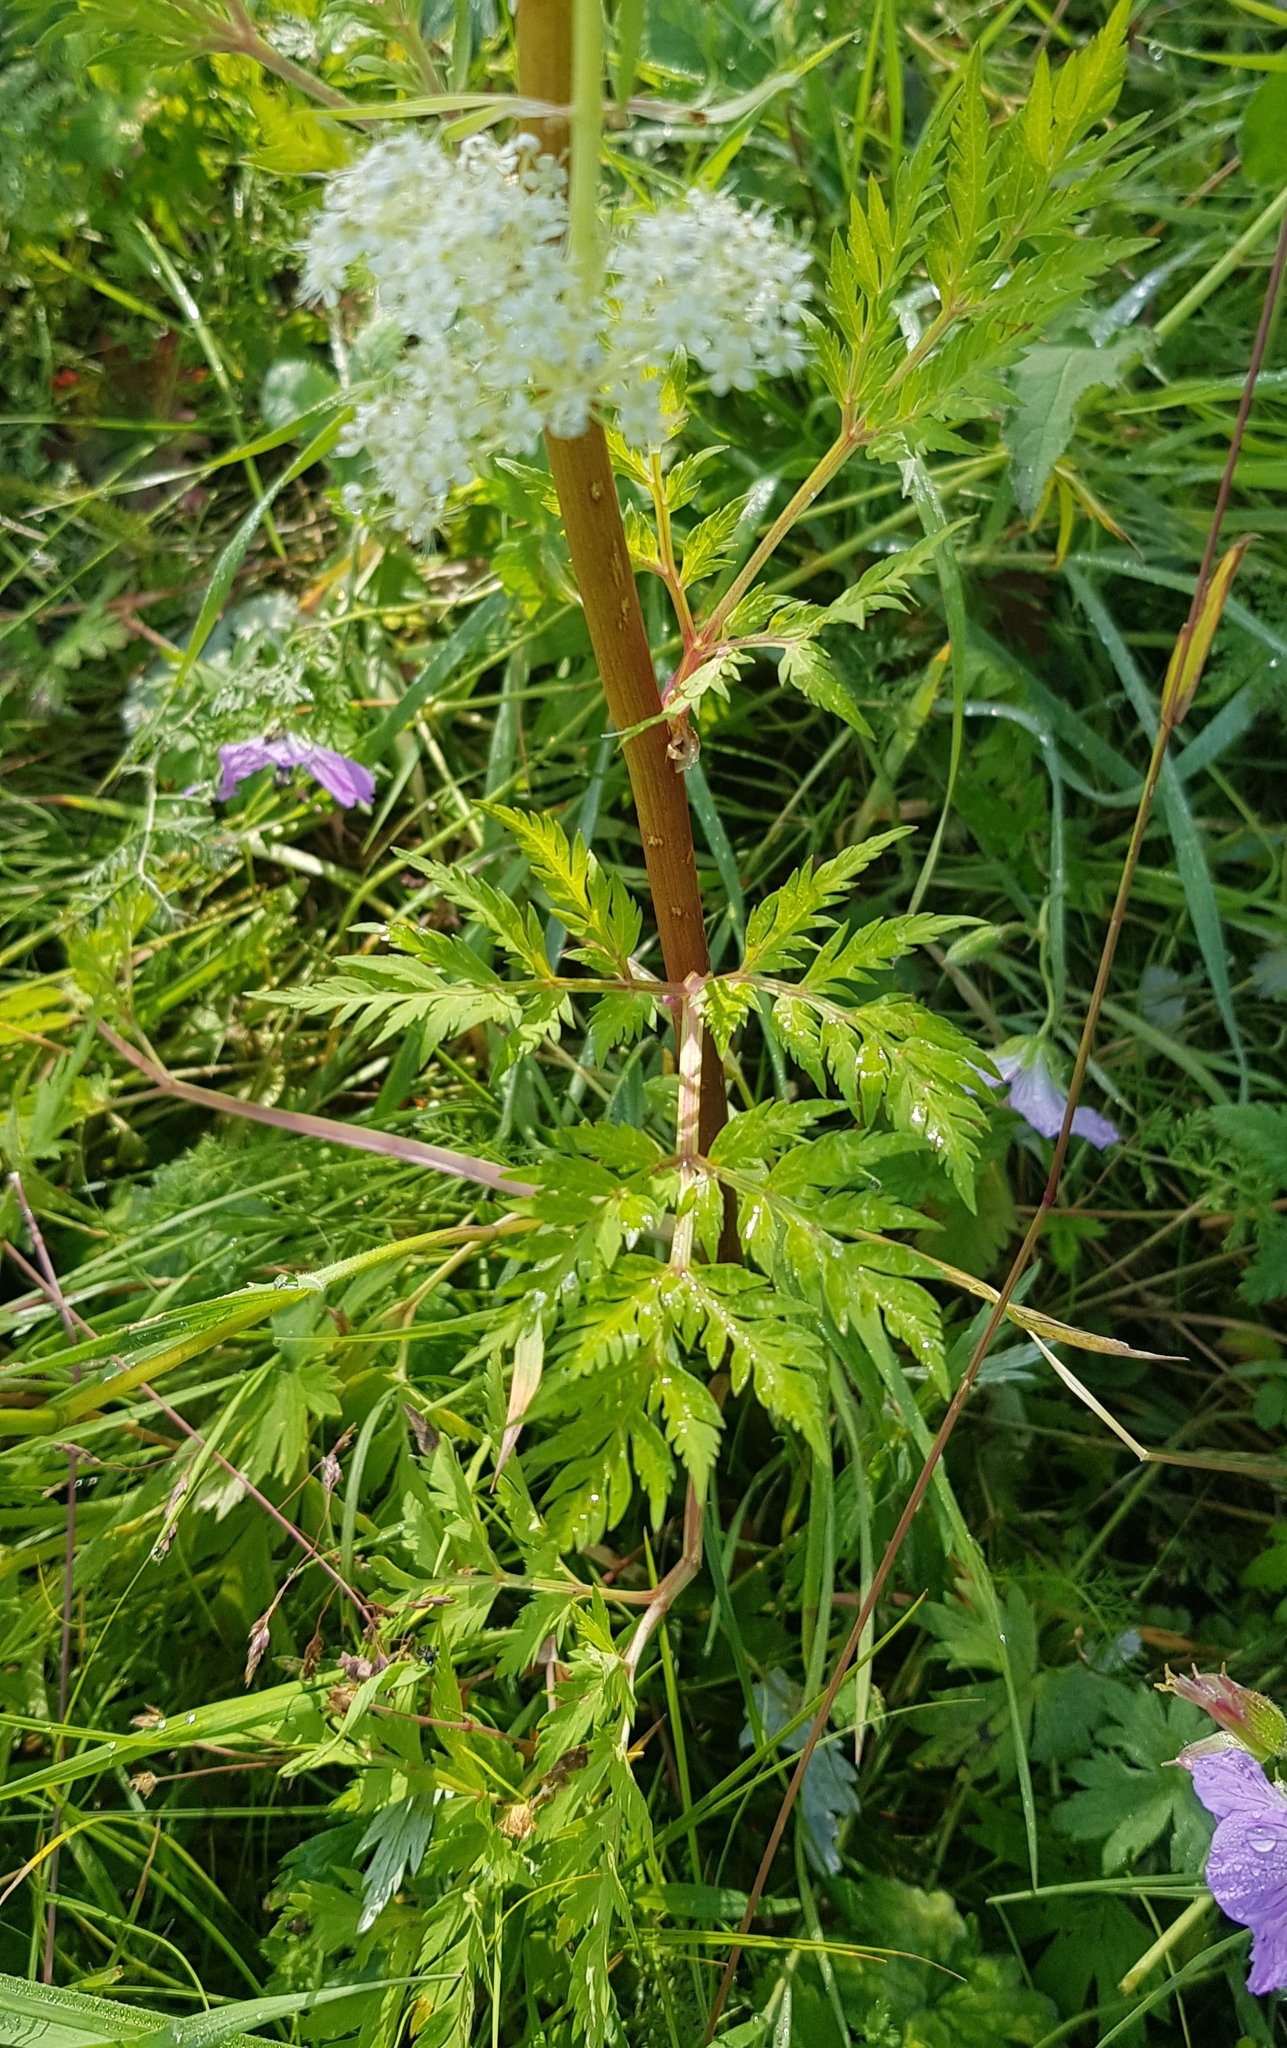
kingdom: Plantae
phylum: Tracheophyta
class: Magnoliopsida
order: Apiales
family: Apiaceae
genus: Pleurospermum
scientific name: Pleurospermum uralense
